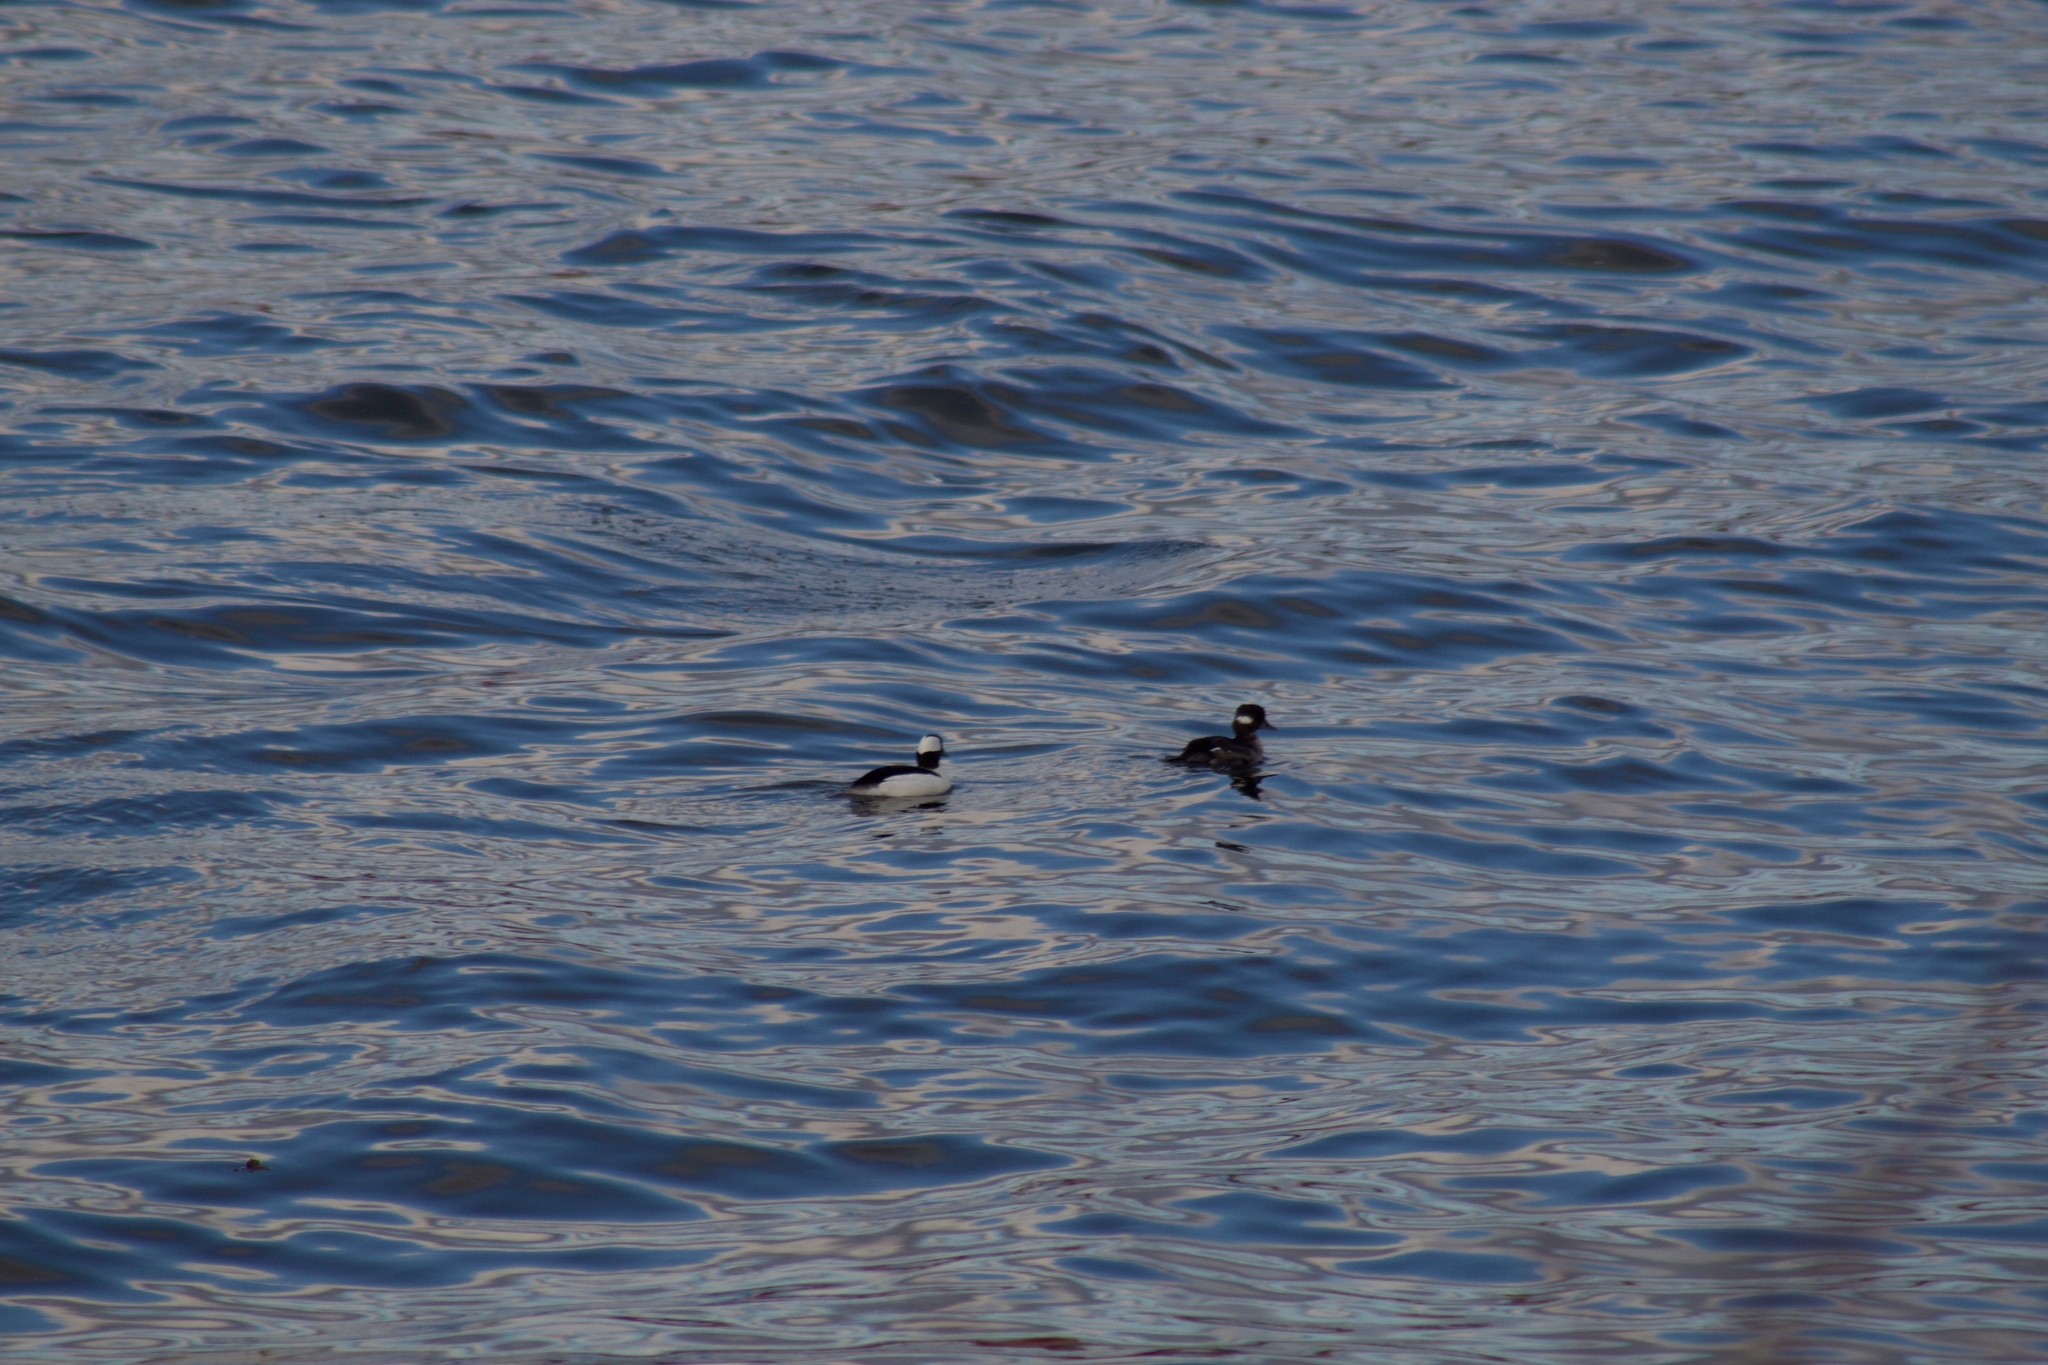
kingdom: Animalia
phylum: Chordata
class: Aves
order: Anseriformes
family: Anatidae
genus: Bucephala
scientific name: Bucephala albeola
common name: Bufflehead
